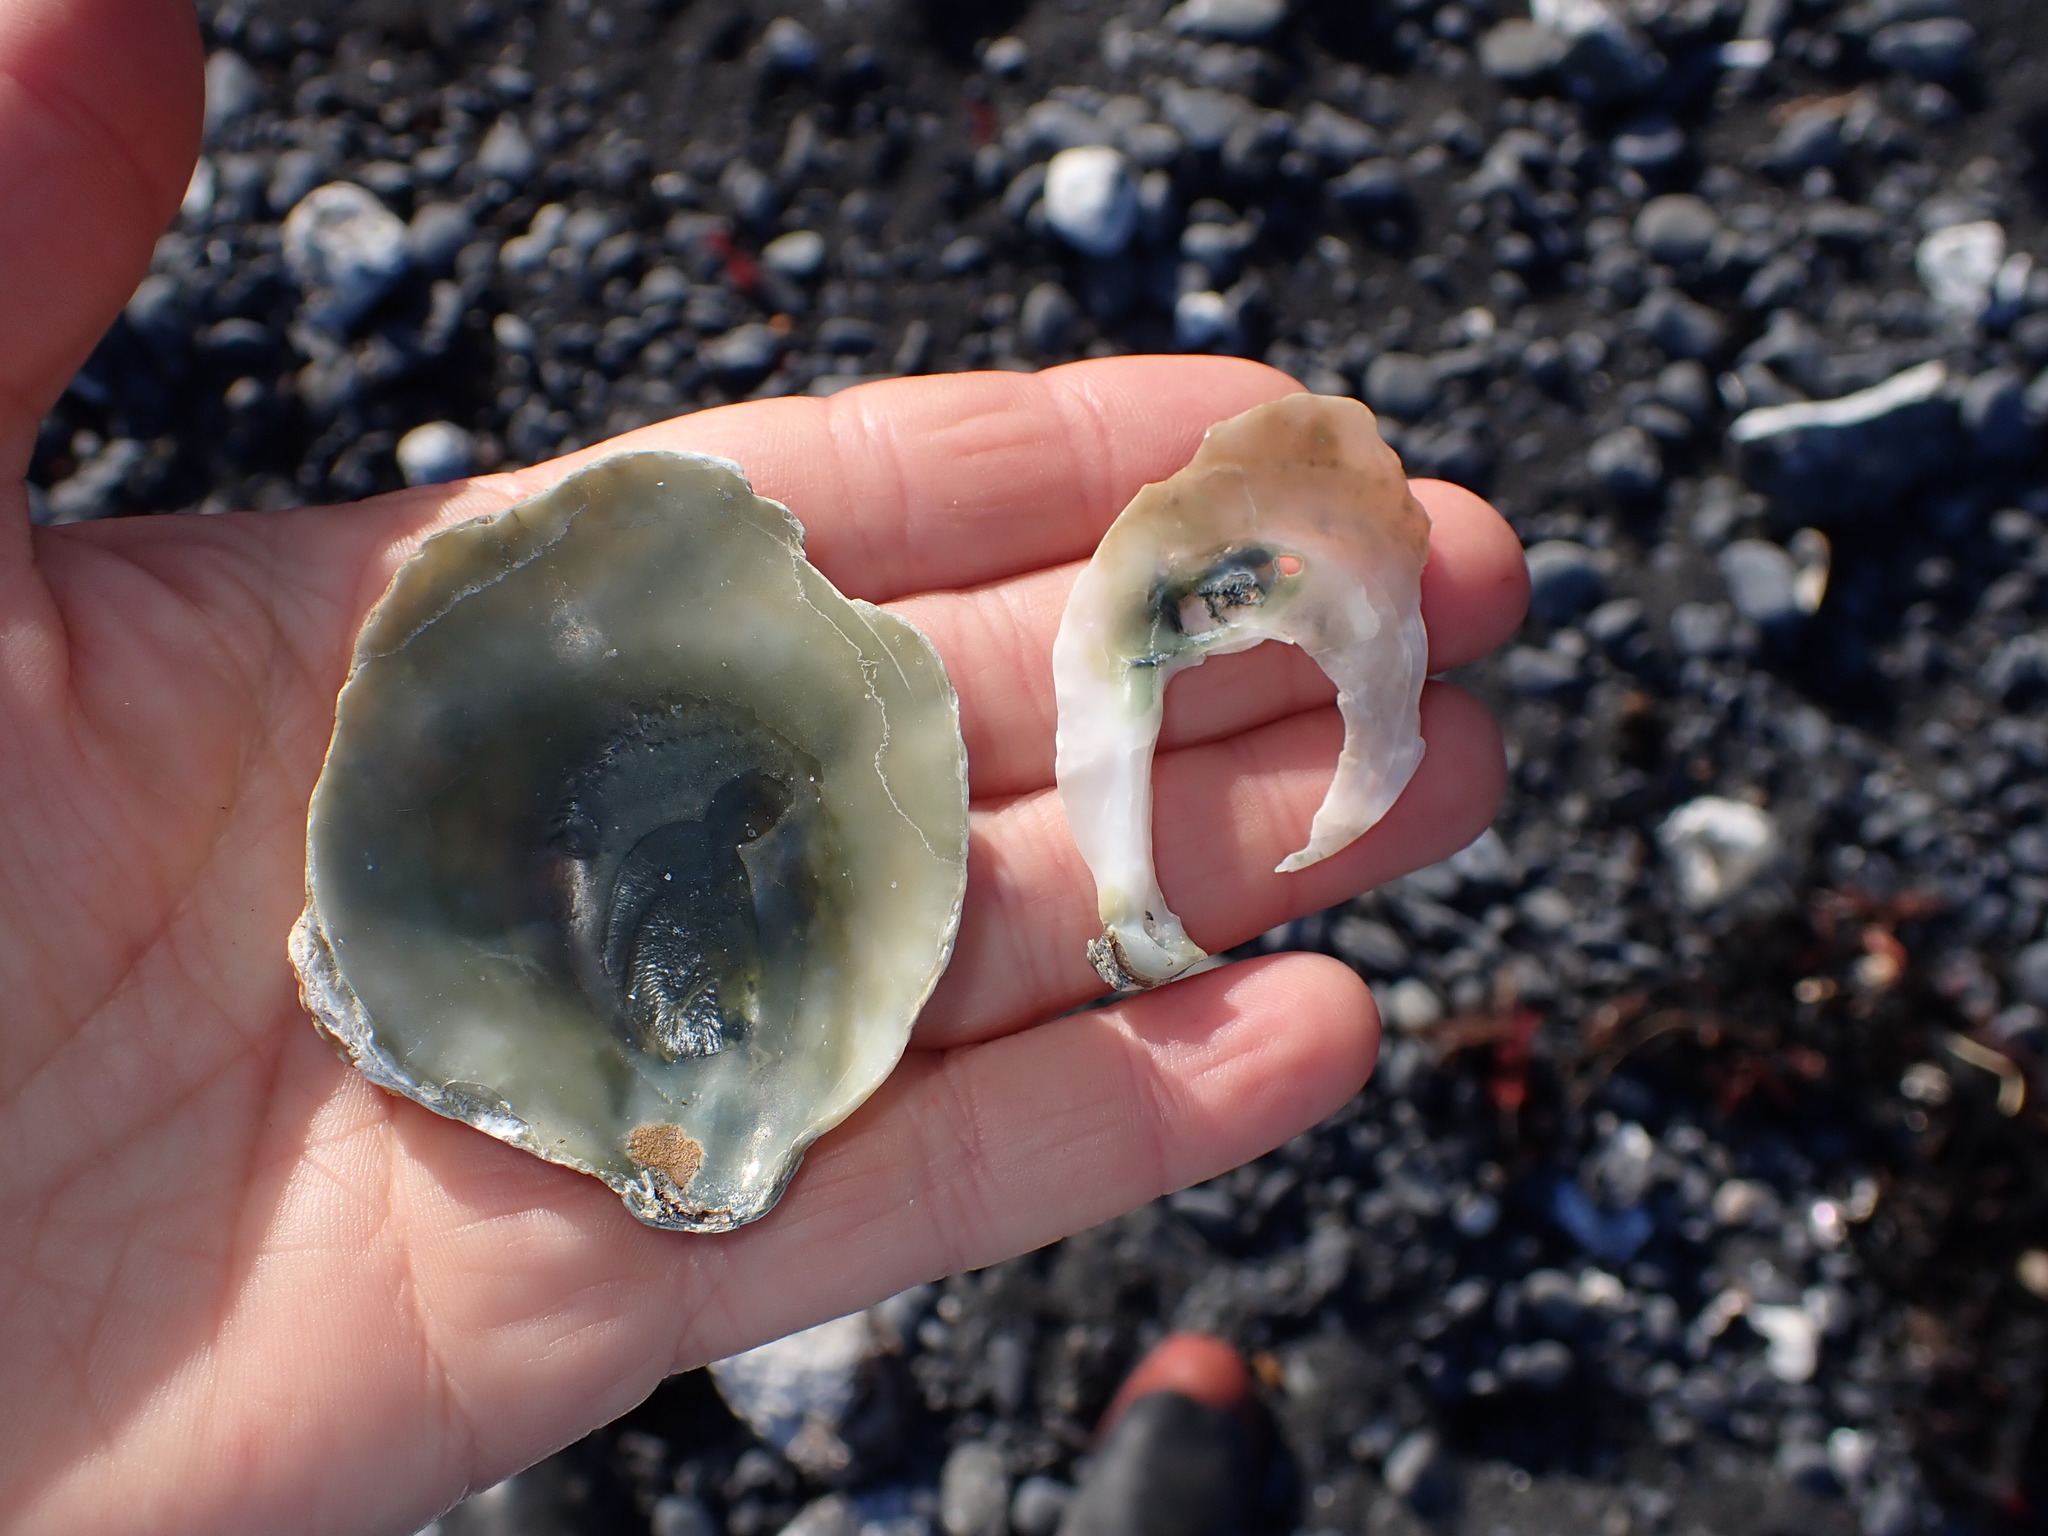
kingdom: Animalia
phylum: Mollusca
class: Bivalvia
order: Pectinida
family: Anomiidae
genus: Monia
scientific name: Monia zelandica
